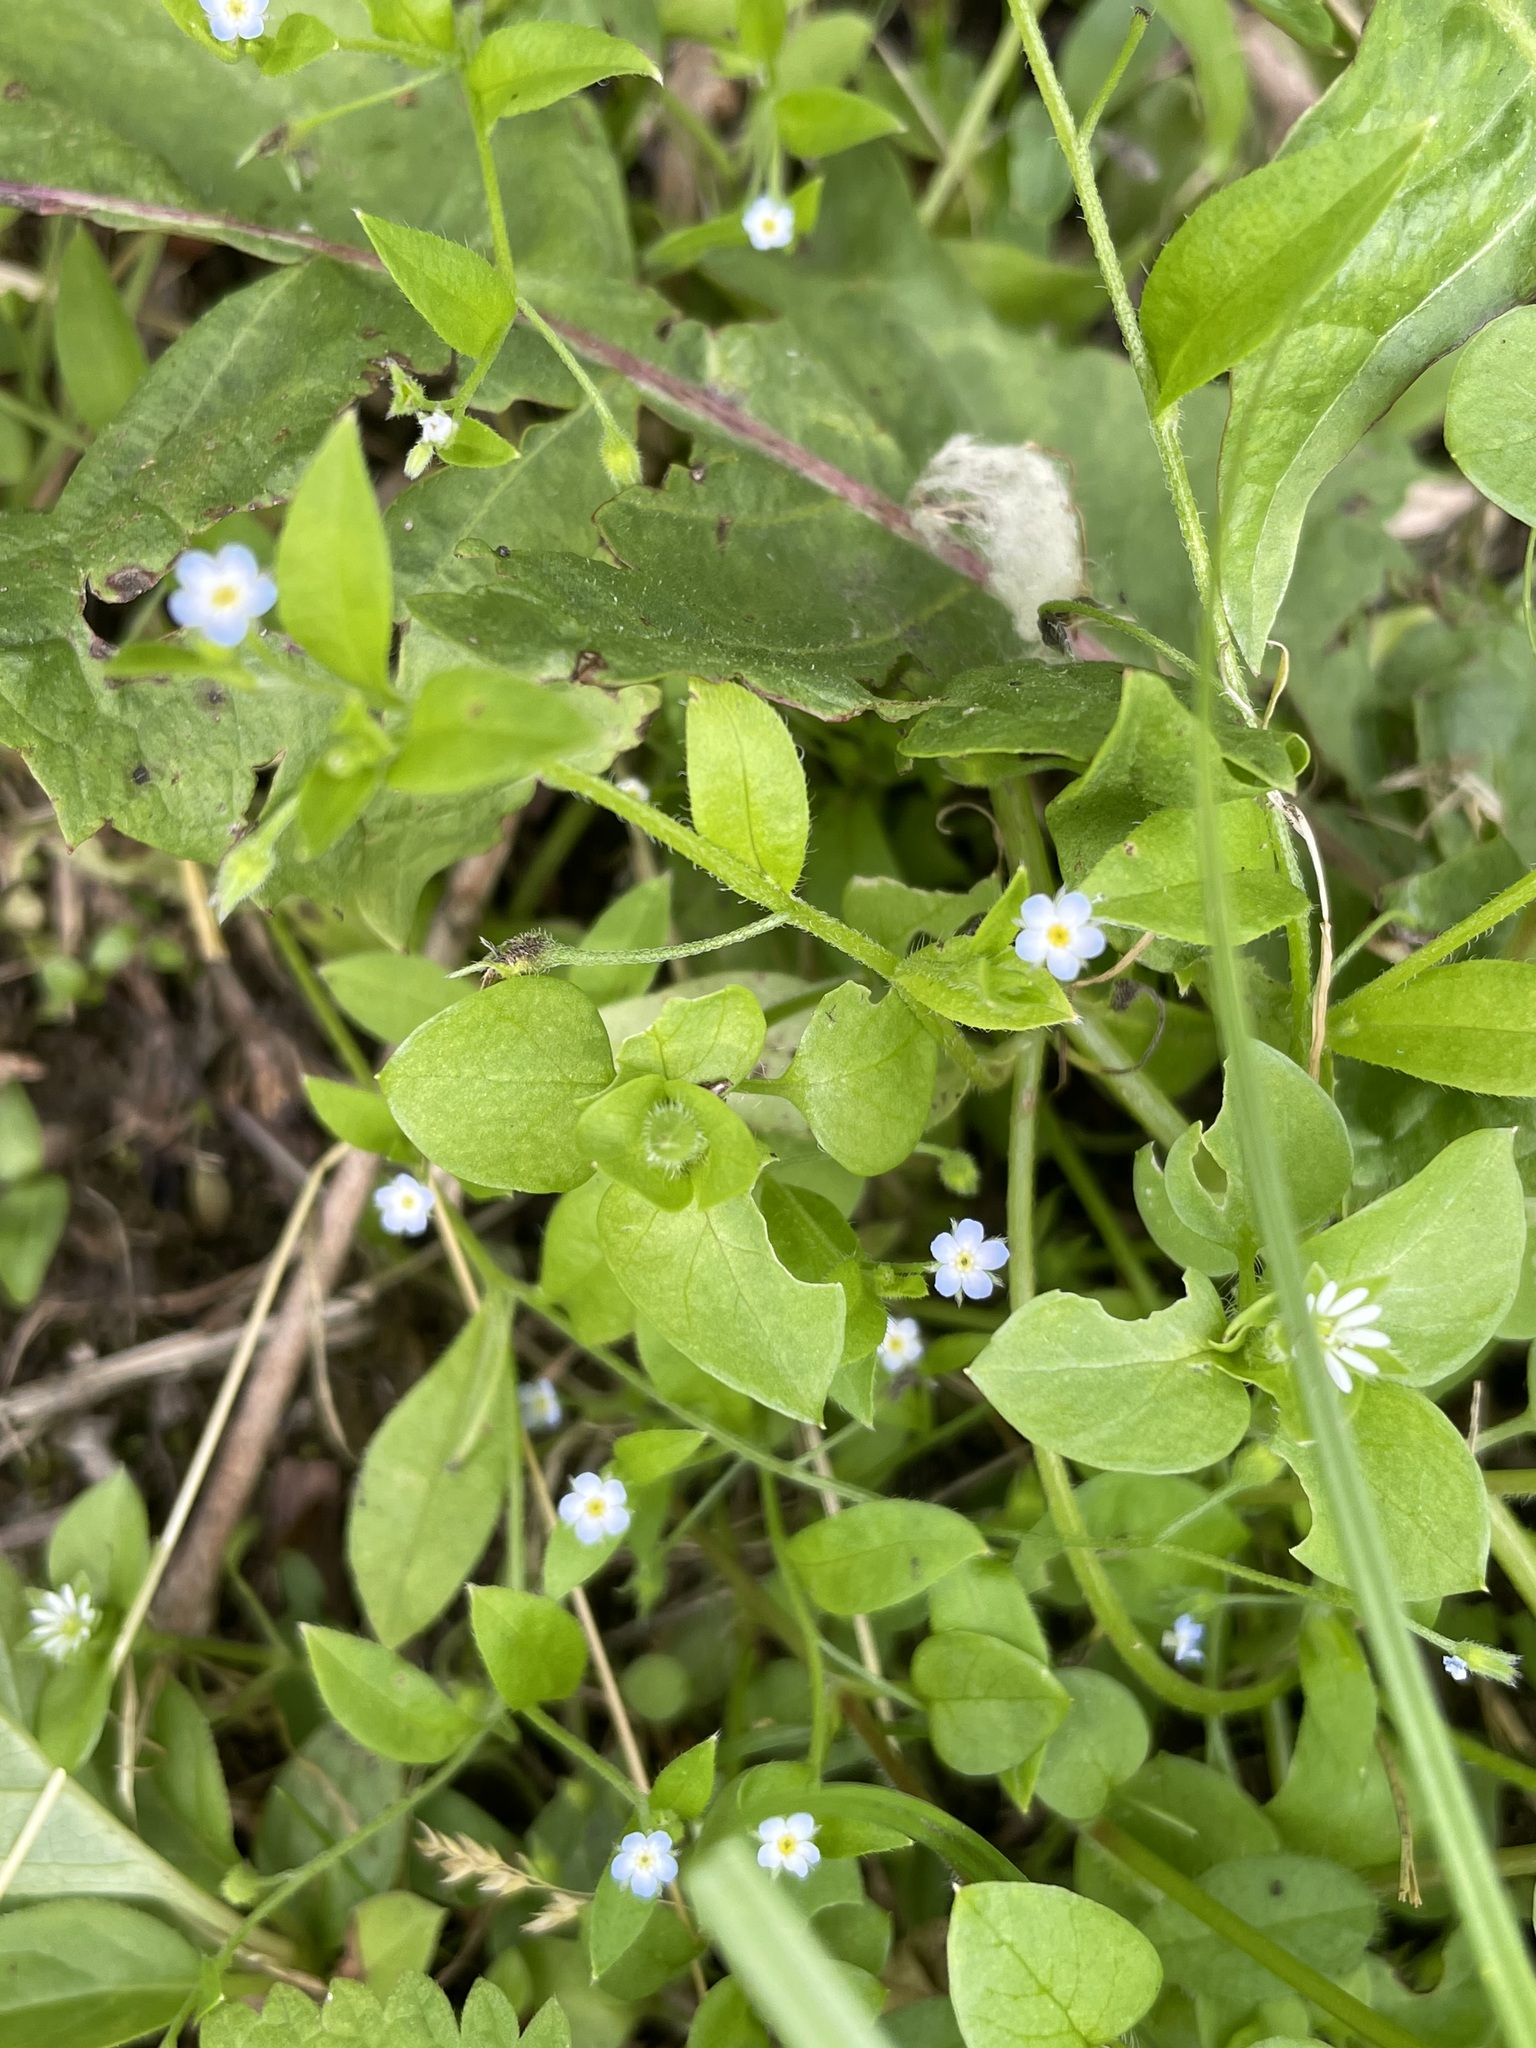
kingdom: Plantae
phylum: Tracheophyta
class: Magnoliopsida
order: Boraginales
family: Boraginaceae
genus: Myosotis
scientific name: Myosotis sparsiflora
